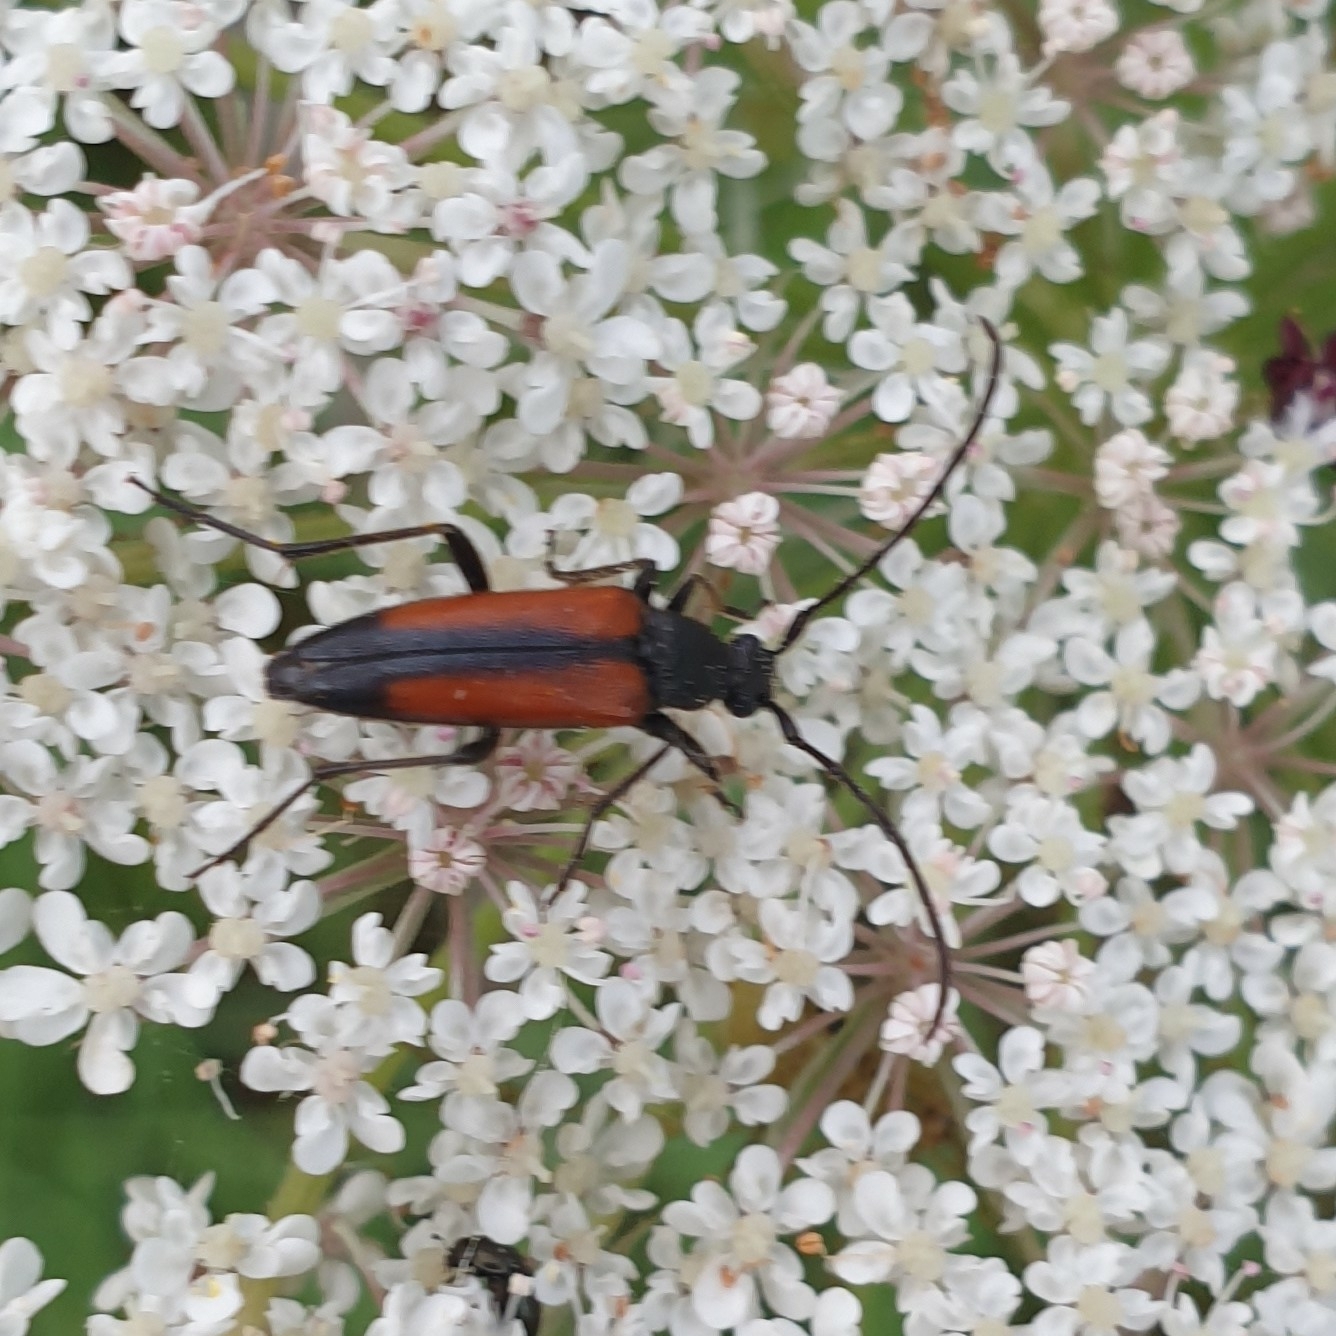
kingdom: Animalia
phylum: Arthropoda
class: Insecta
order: Coleoptera
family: Cerambycidae
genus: Stenurella
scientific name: Stenurella melanura
